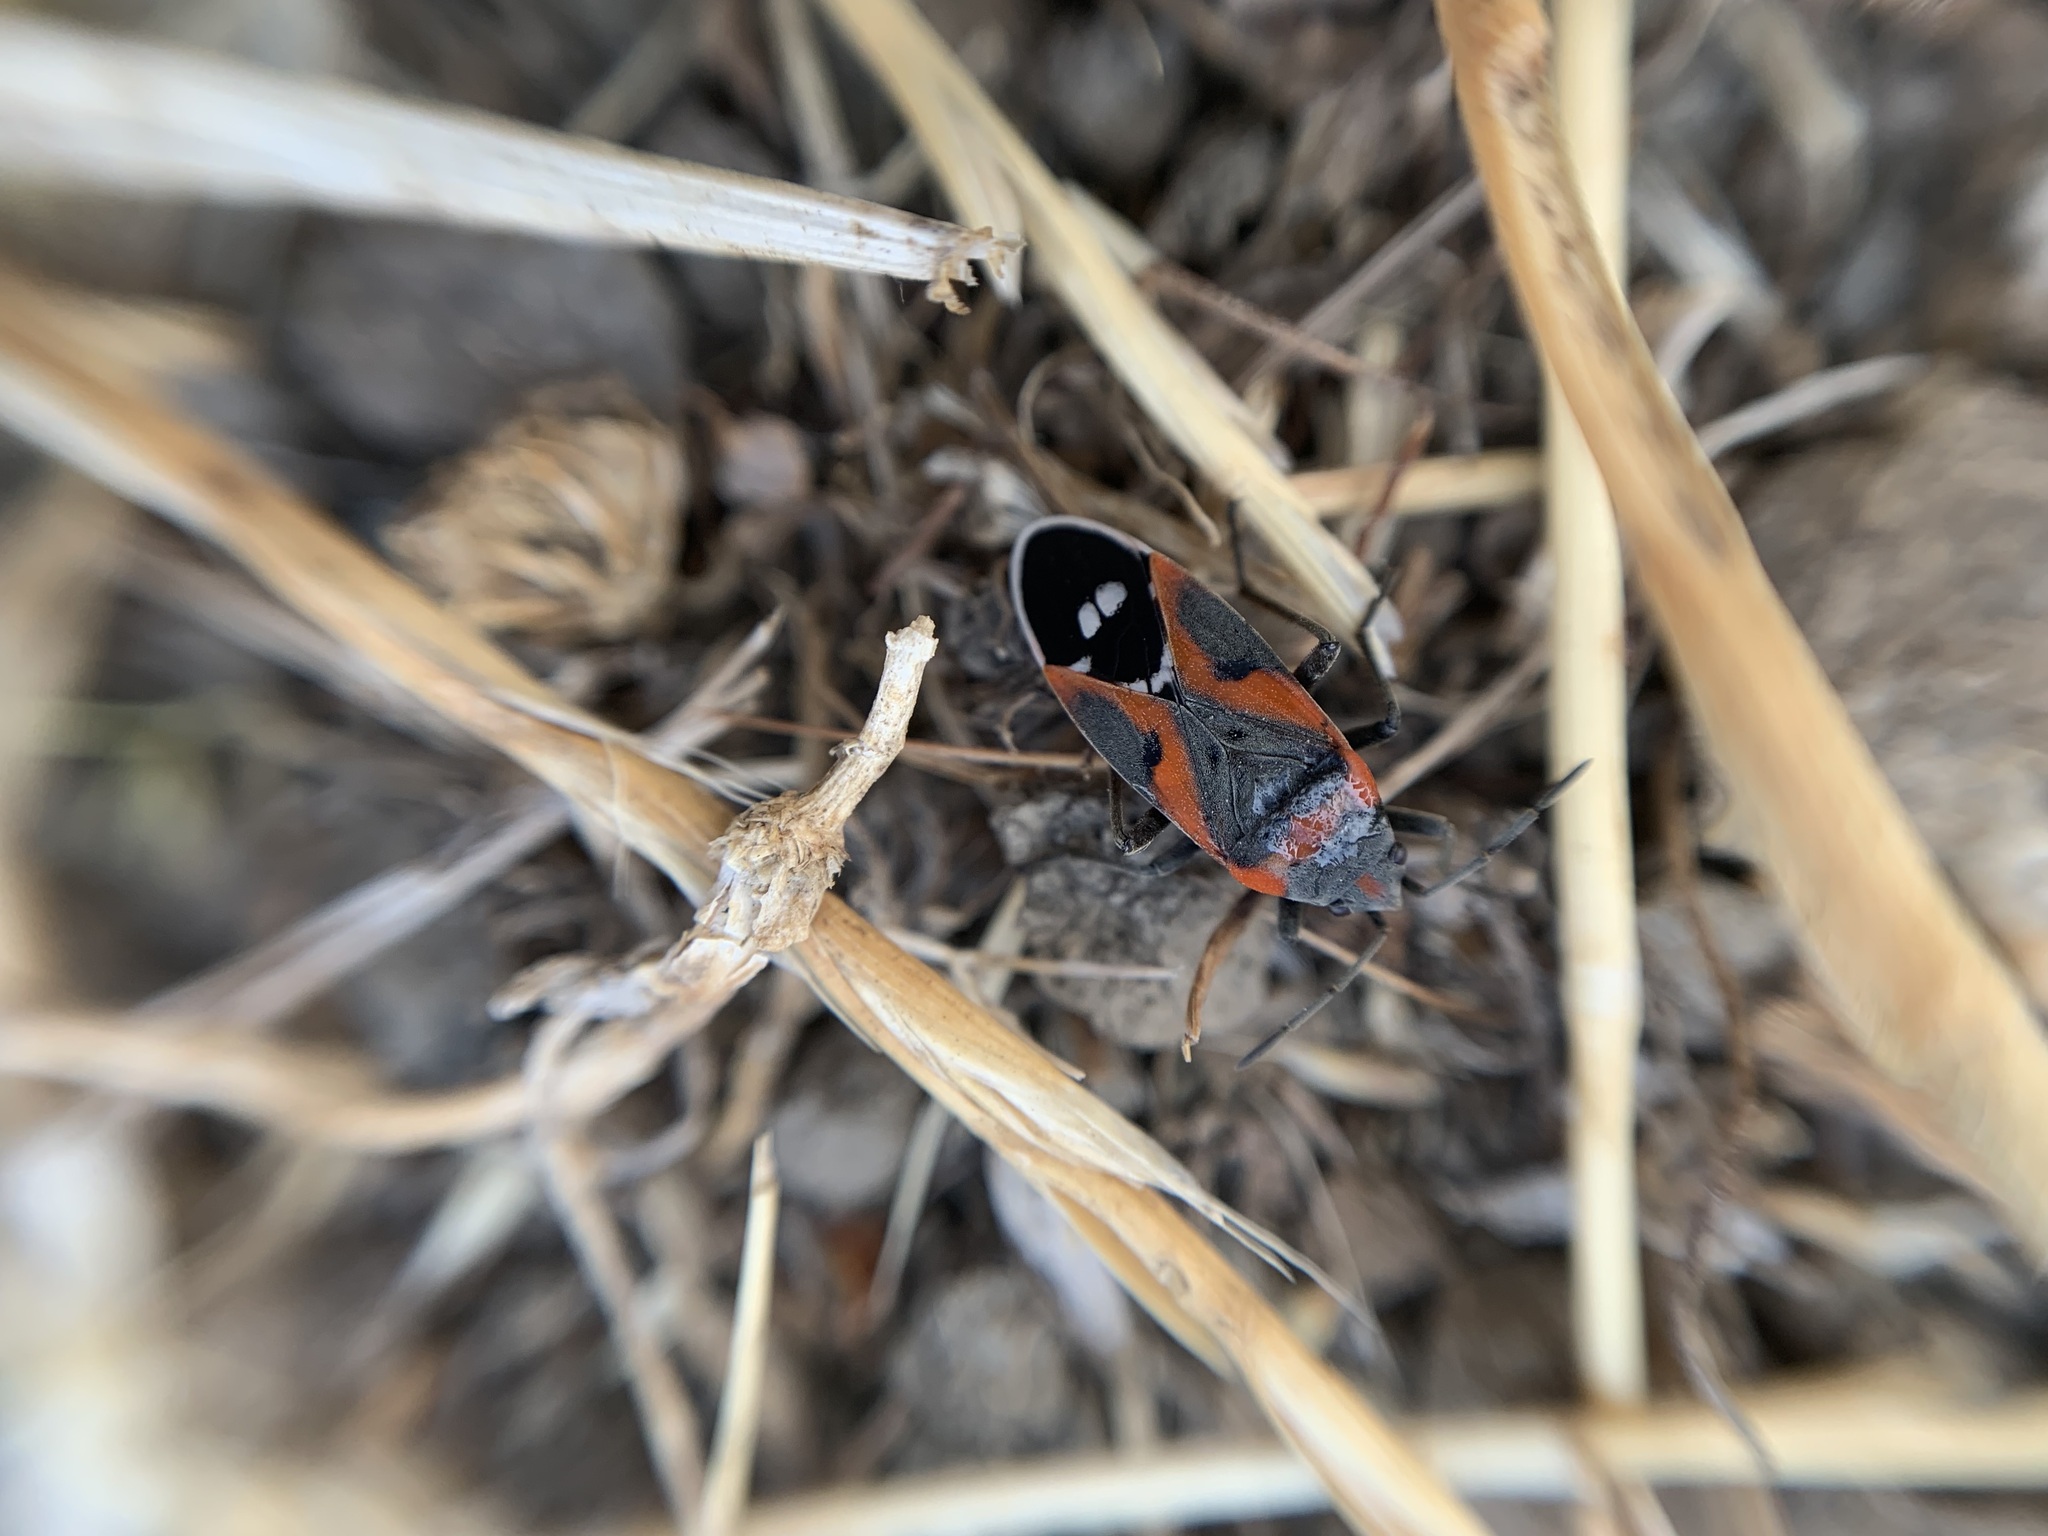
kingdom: Animalia
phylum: Arthropoda
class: Insecta
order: Hemiptera
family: Lygaeidae
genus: Lygaeus
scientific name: Lygaeus kalmii
